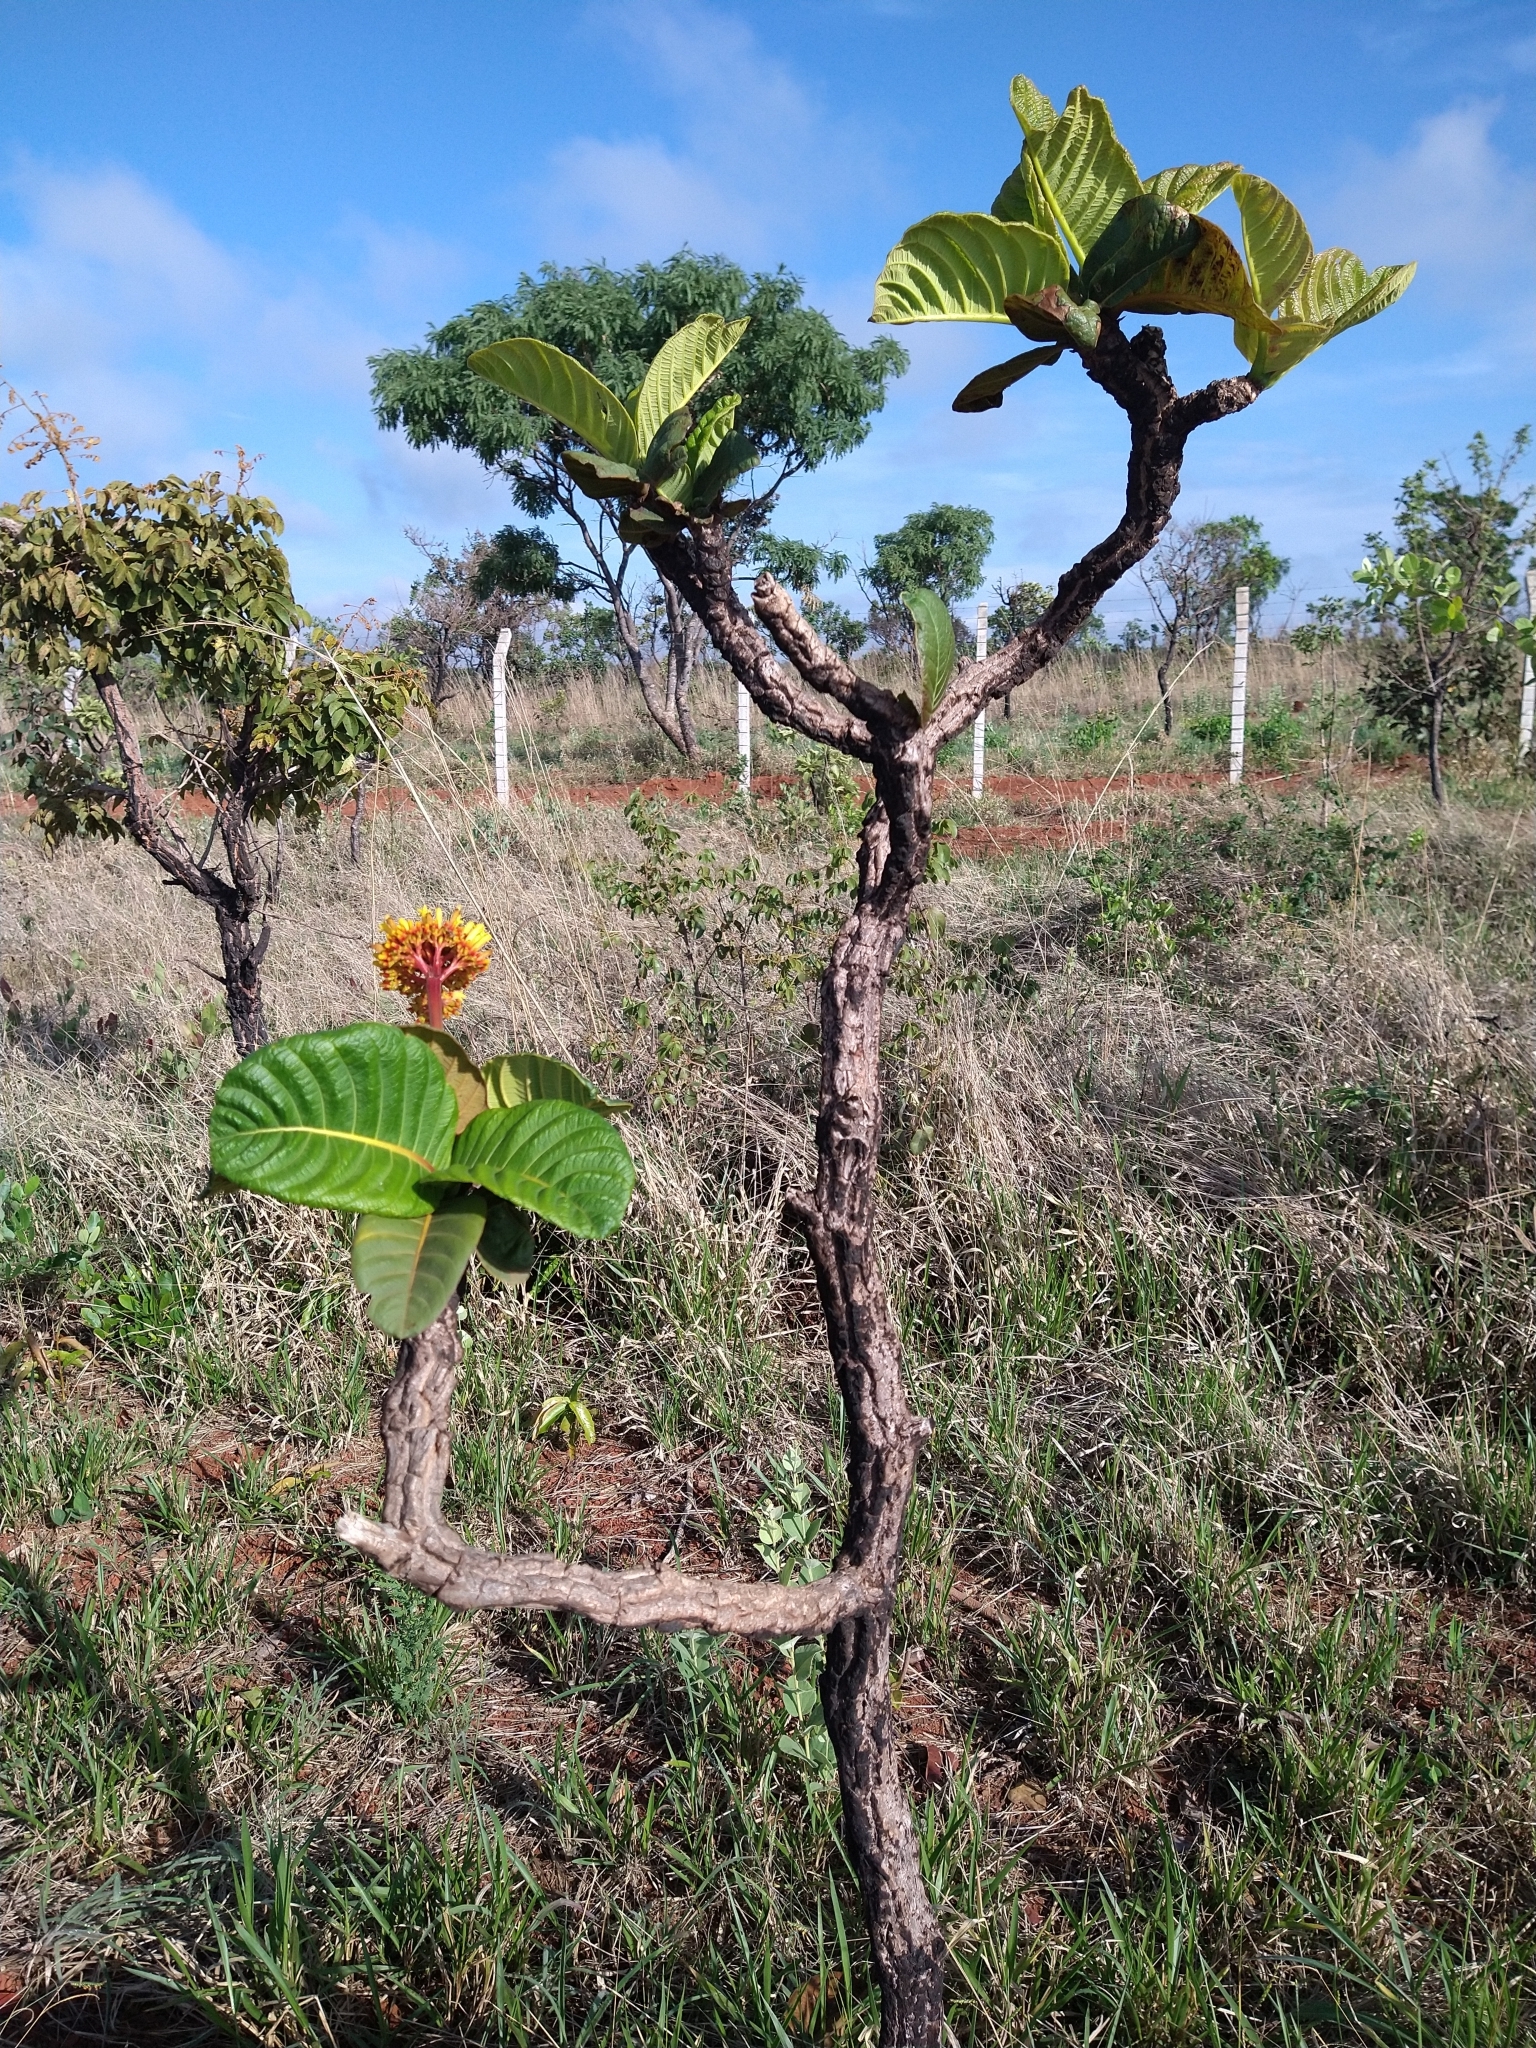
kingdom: Plantae
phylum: Tracheophyta
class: Magnoliopsida
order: Gentianales
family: Rubiaceae
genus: Palicourea
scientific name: Palicourea rigida
